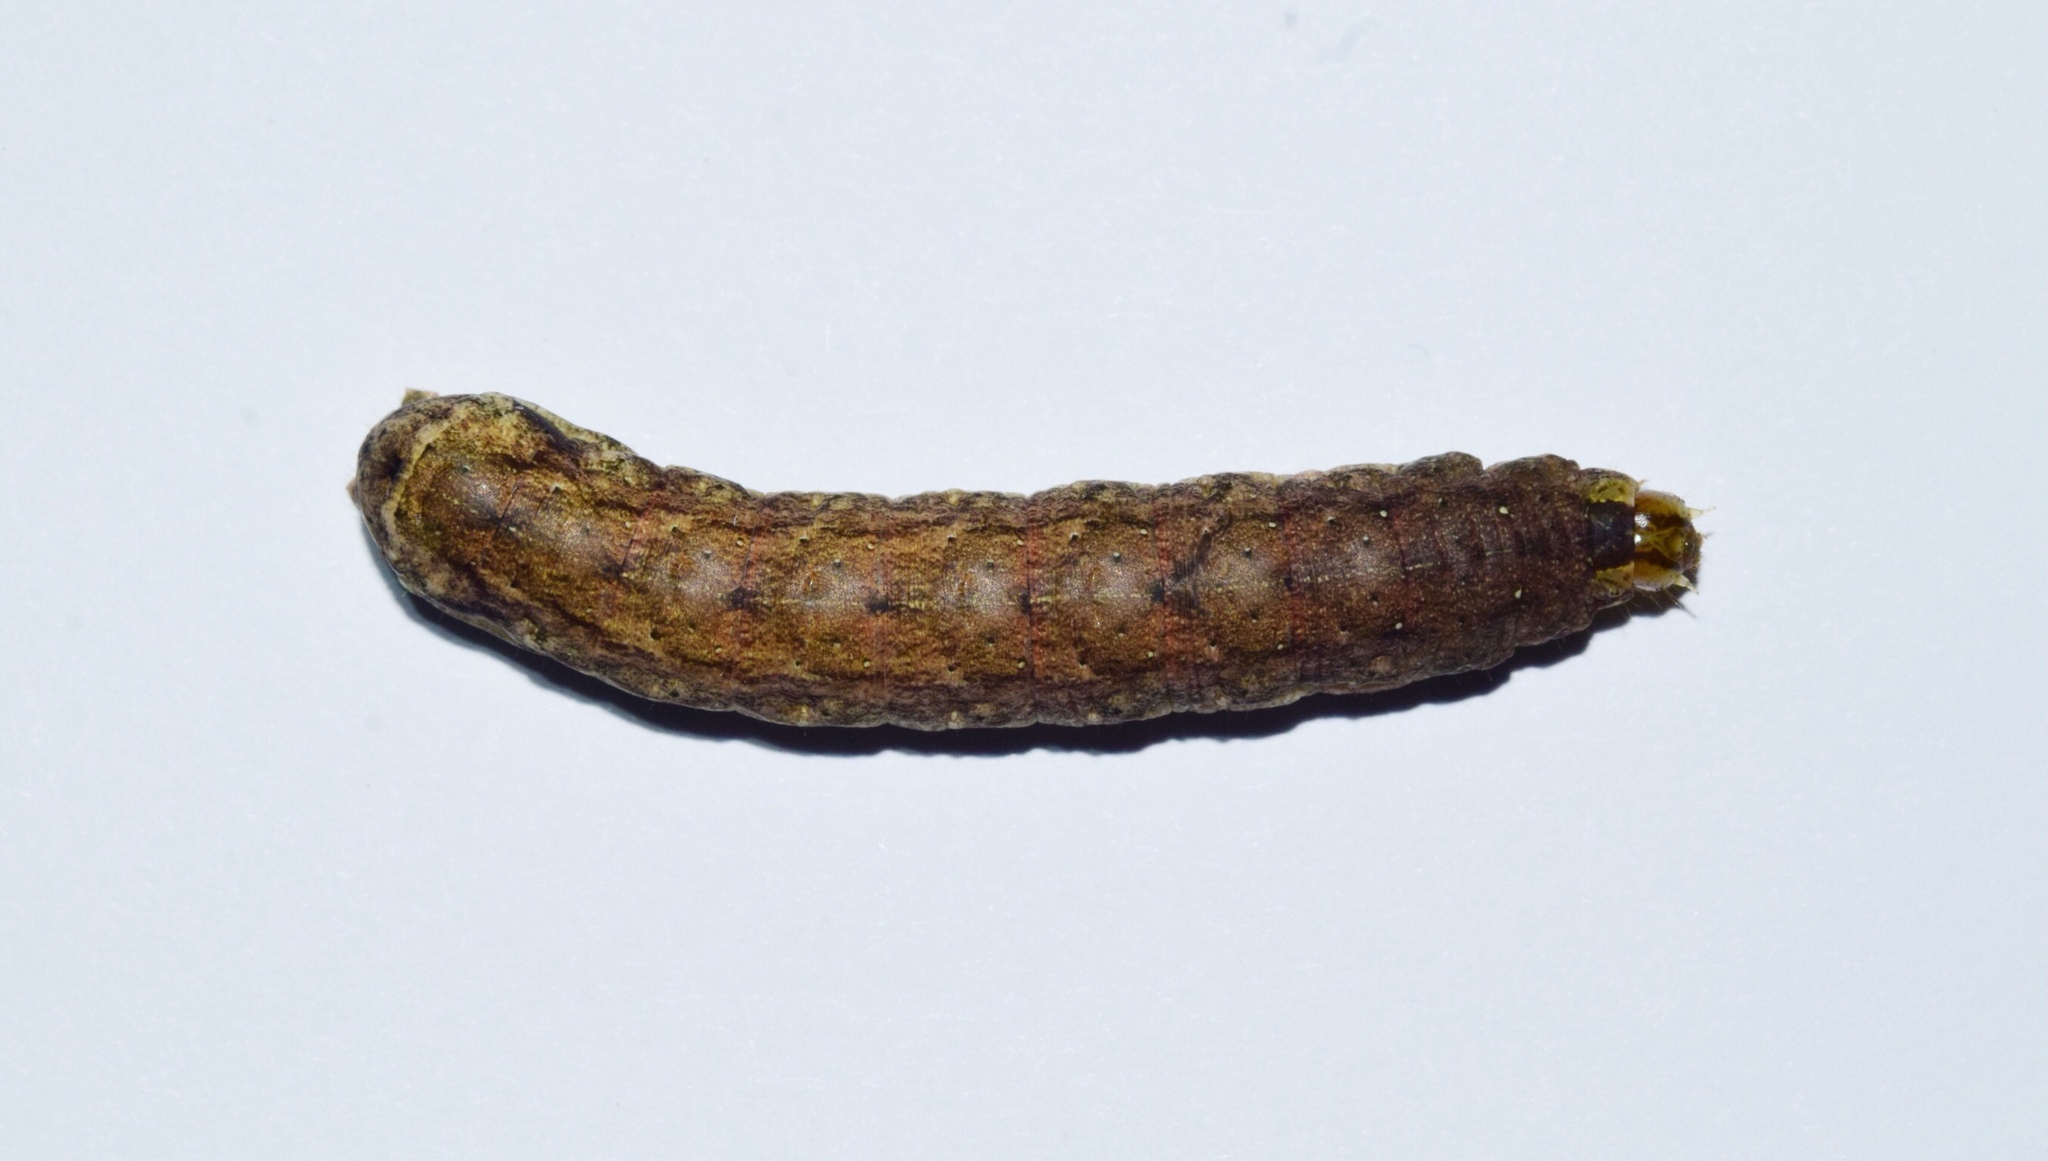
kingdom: Animalia
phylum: Arthropoda
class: Insecta
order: Lepidoptera
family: Noctuidae
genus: Mentaxya
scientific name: Mentaxya ignicollis
